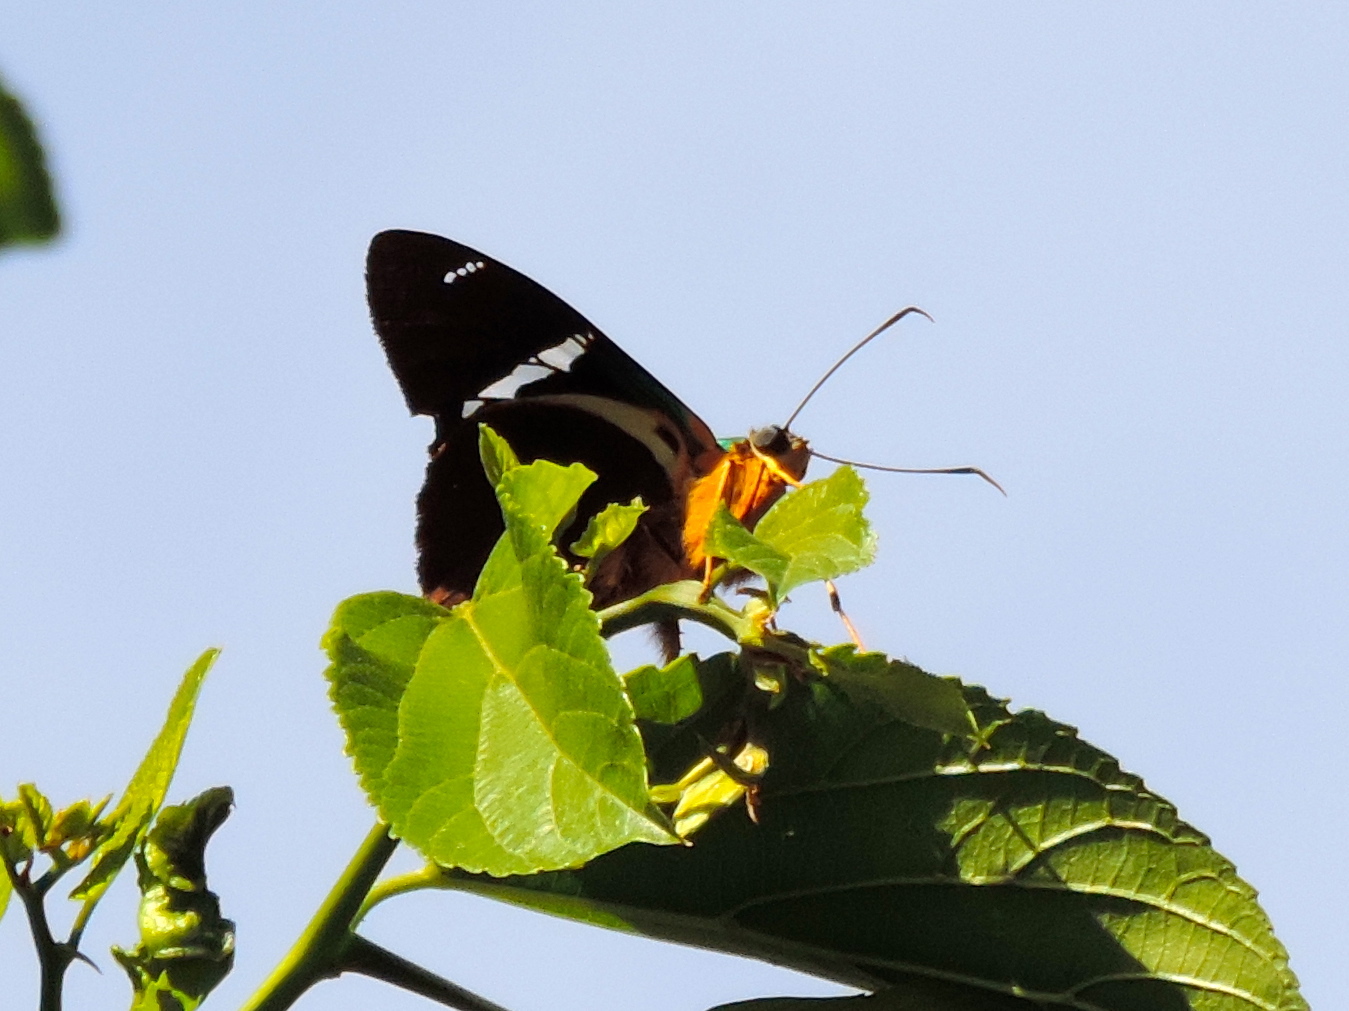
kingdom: Animalia
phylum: Arthropoda
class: Insecta
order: Lepidoptera
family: Hesperiidae
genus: Astraptes
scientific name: Astraptes fulgerator
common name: Two-barred flasher
